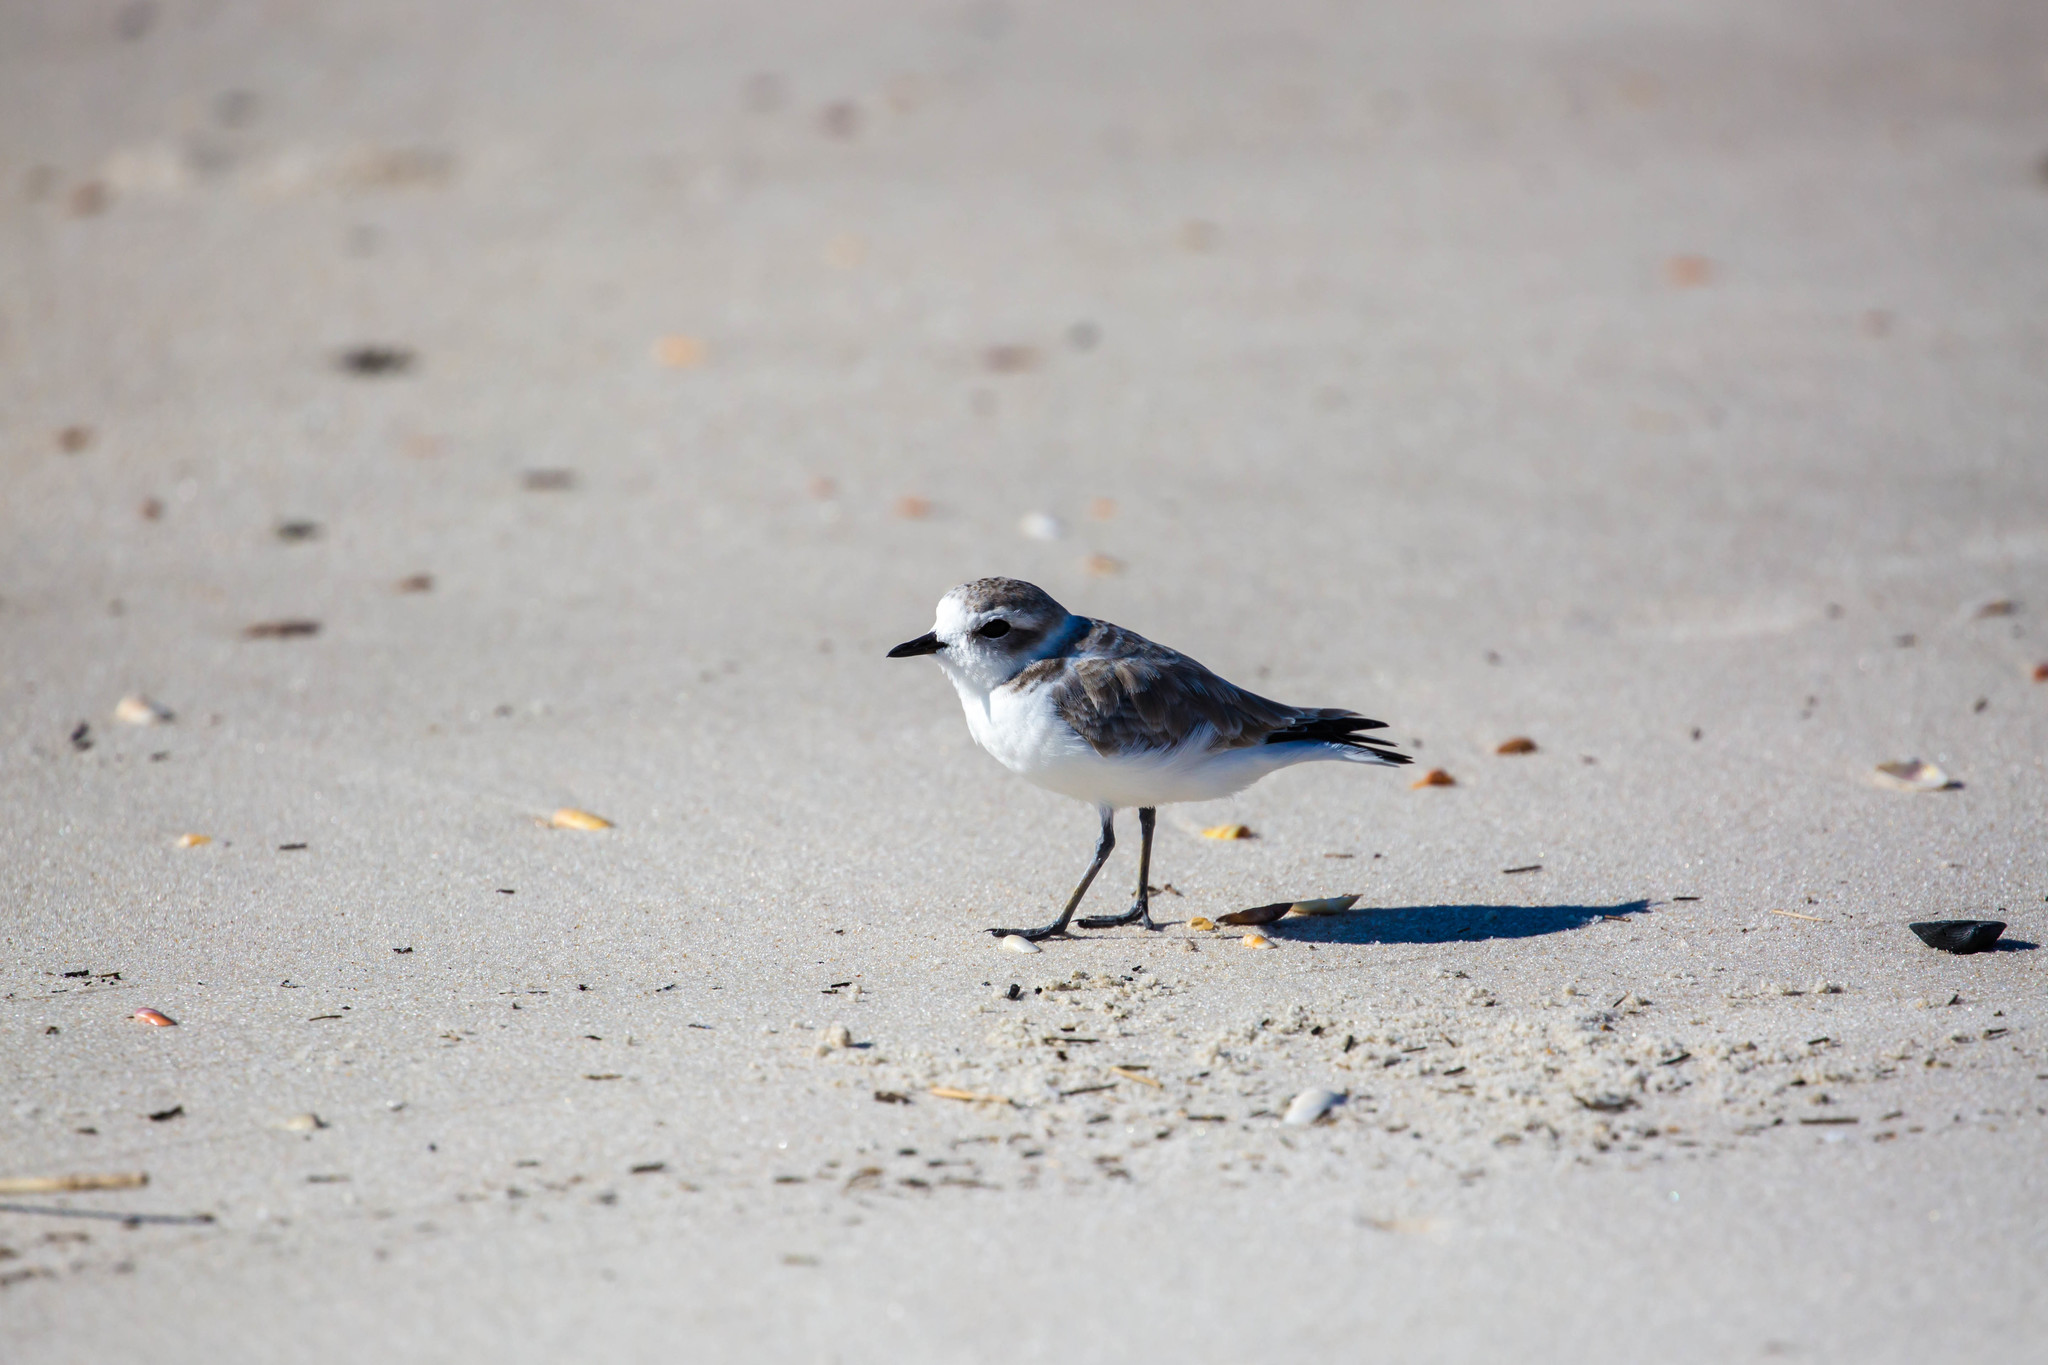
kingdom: Animalia
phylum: Chordata
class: Aves
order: Charadriiformes
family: Charadriidae
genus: Anarhynchus
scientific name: Anarhynchus
